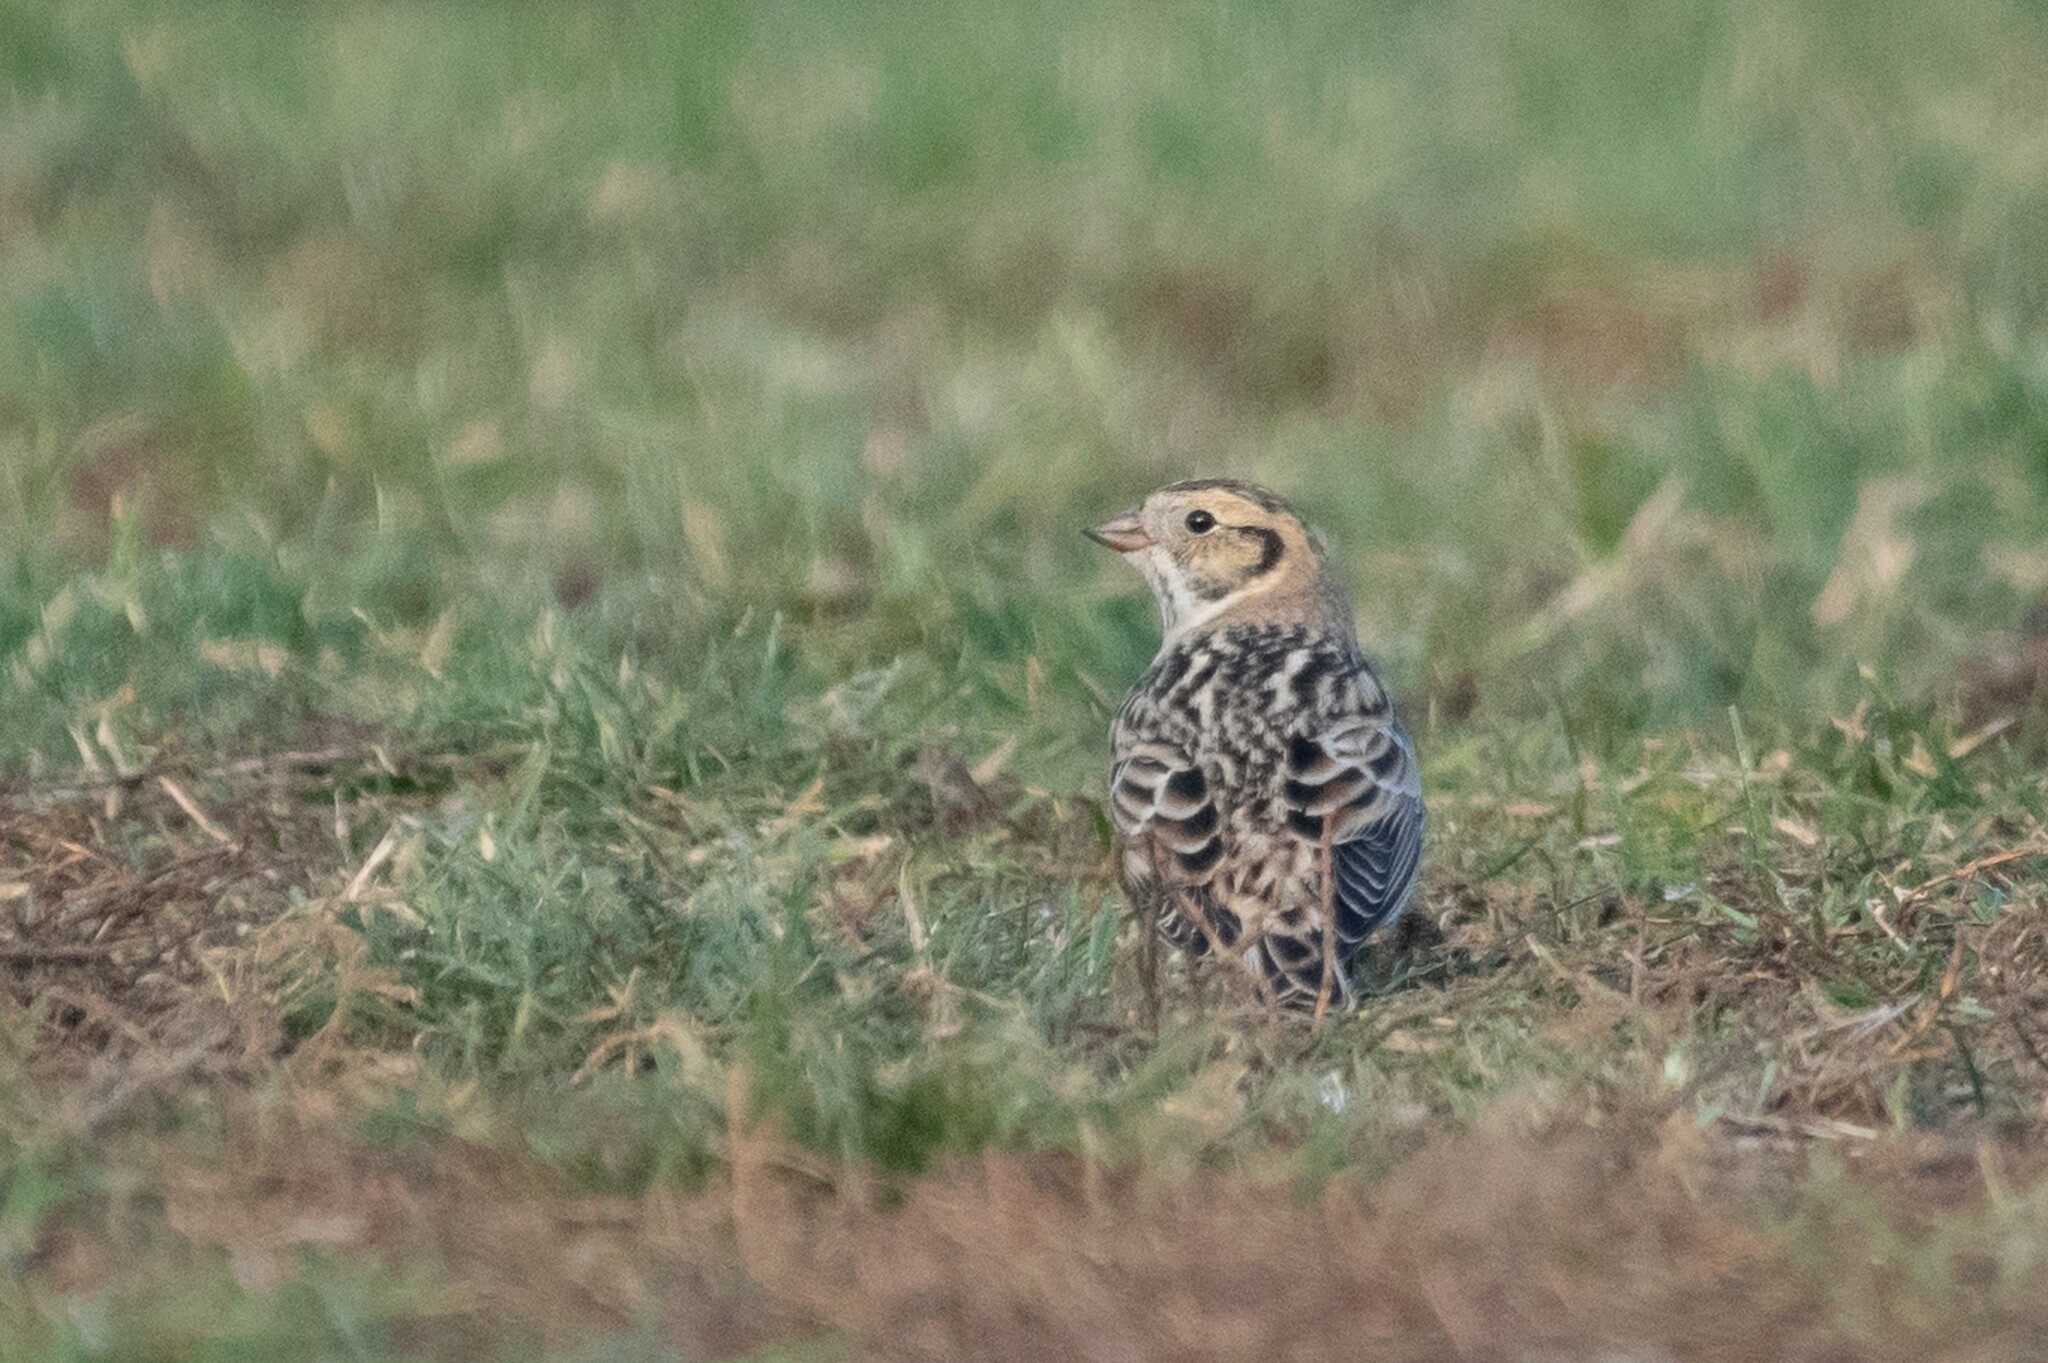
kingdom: Animalia
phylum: Chordata
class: Aves
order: Passeriformes
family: Calcariidae
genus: Calcarius
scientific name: Calcarius lapponicus
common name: Lapland longspur
